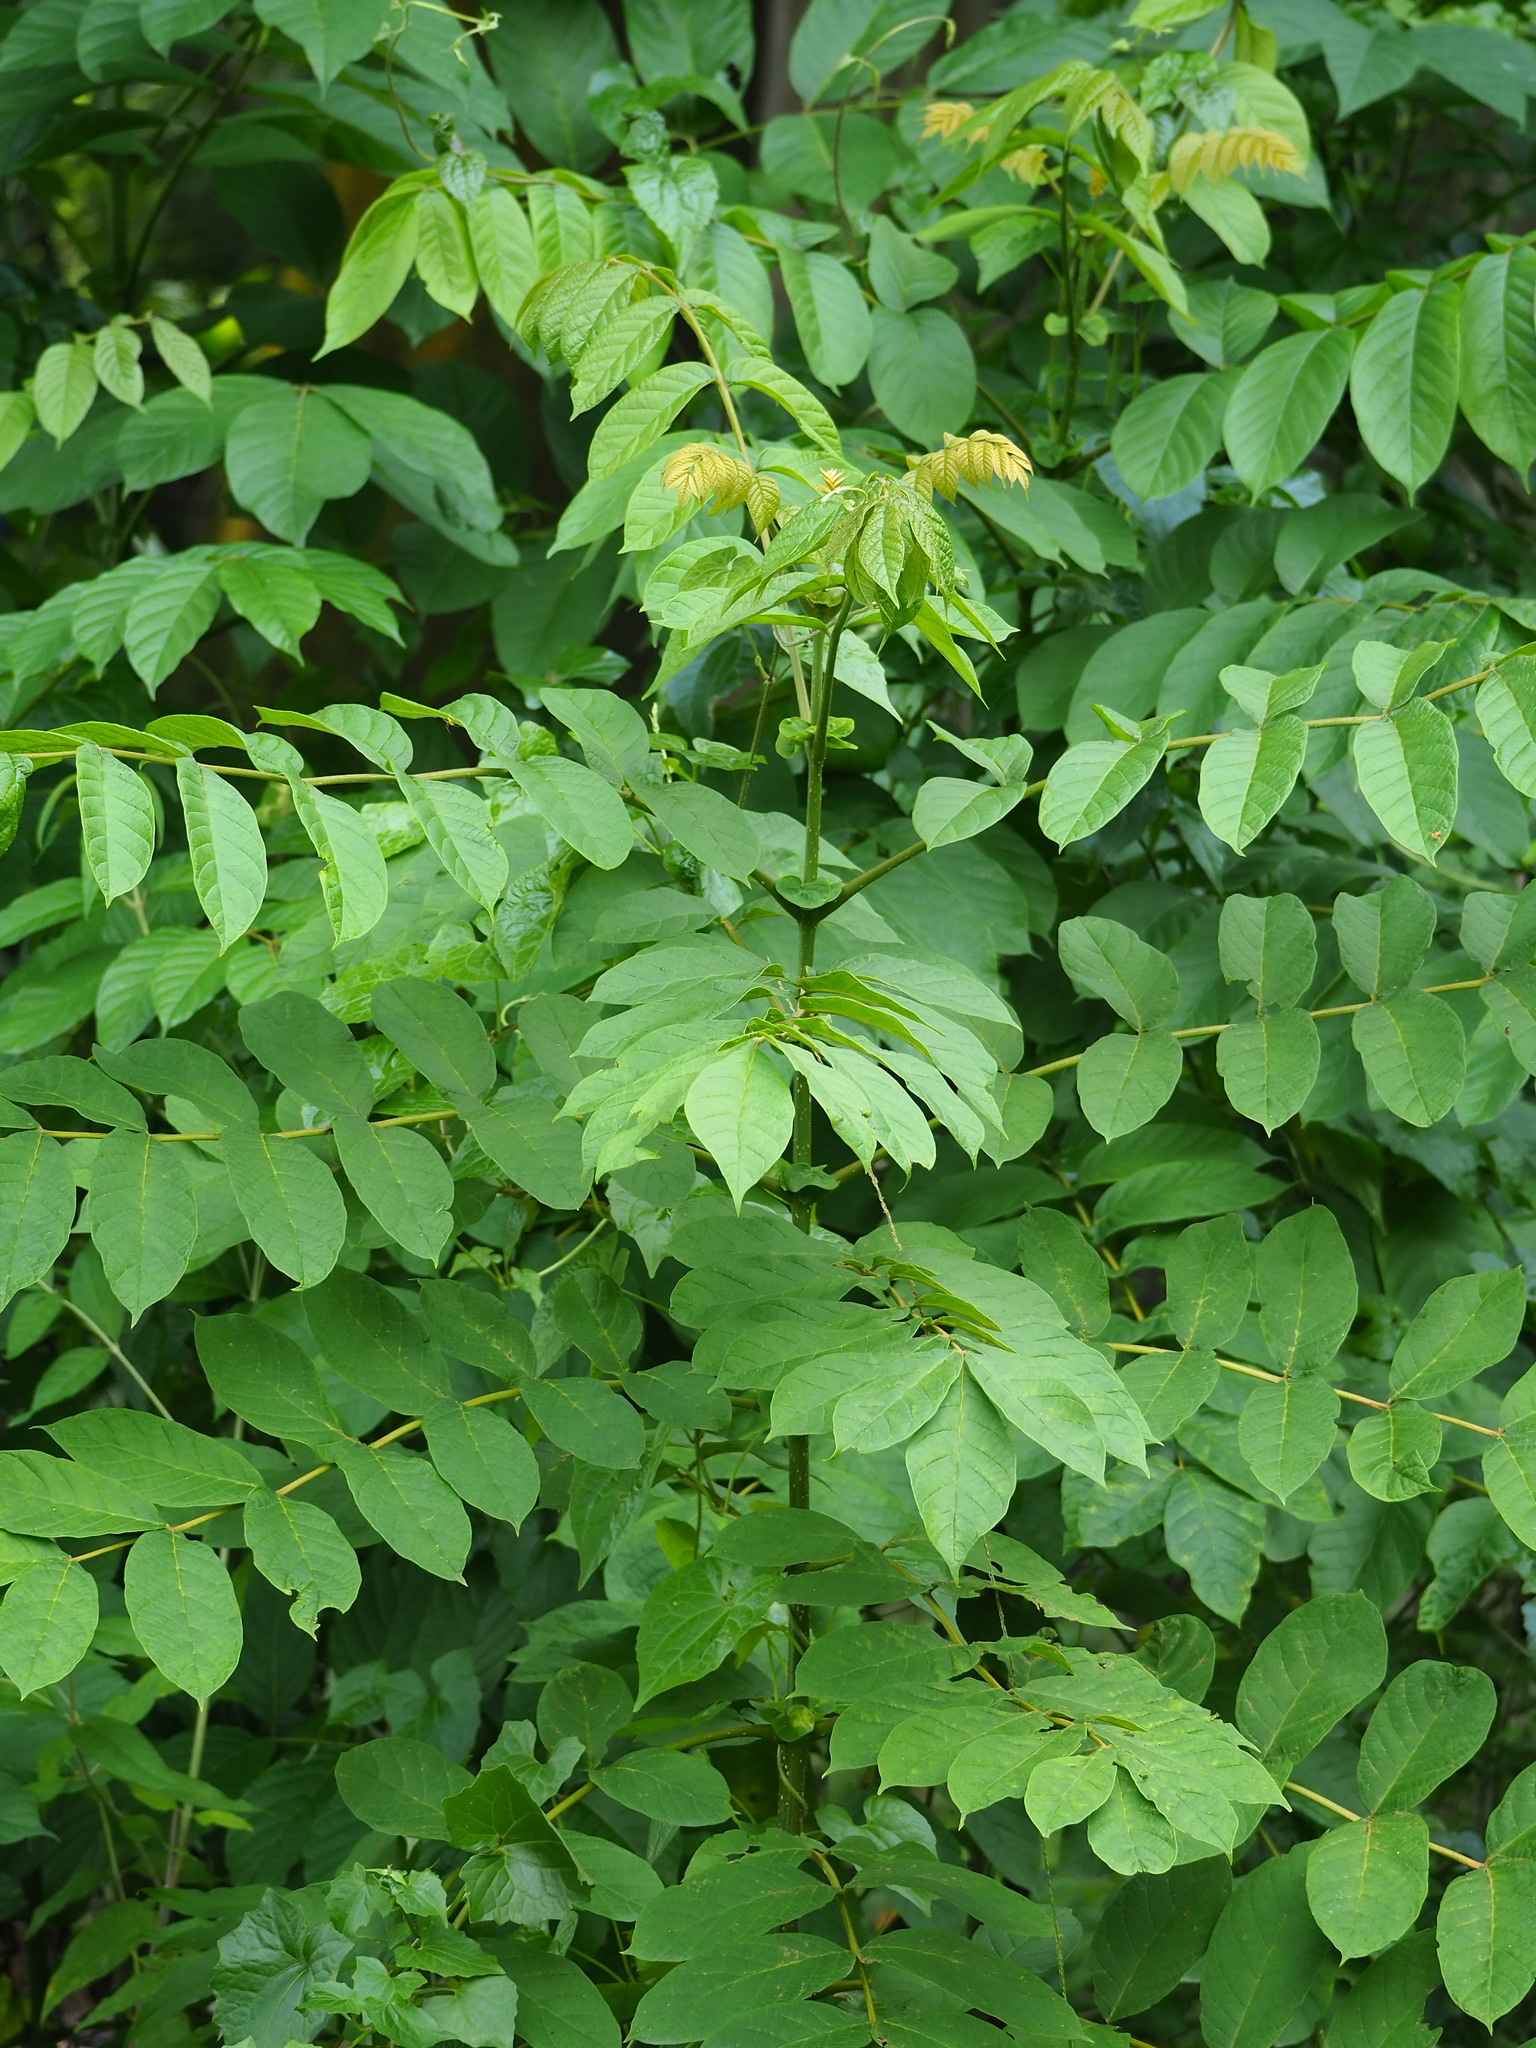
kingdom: Plantae
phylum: Tracheophyta
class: Magnoliopsida
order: Lamiales
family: Bignoniaceae
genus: Spathodea
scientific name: Spathodea campanulata
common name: African tuliptree
